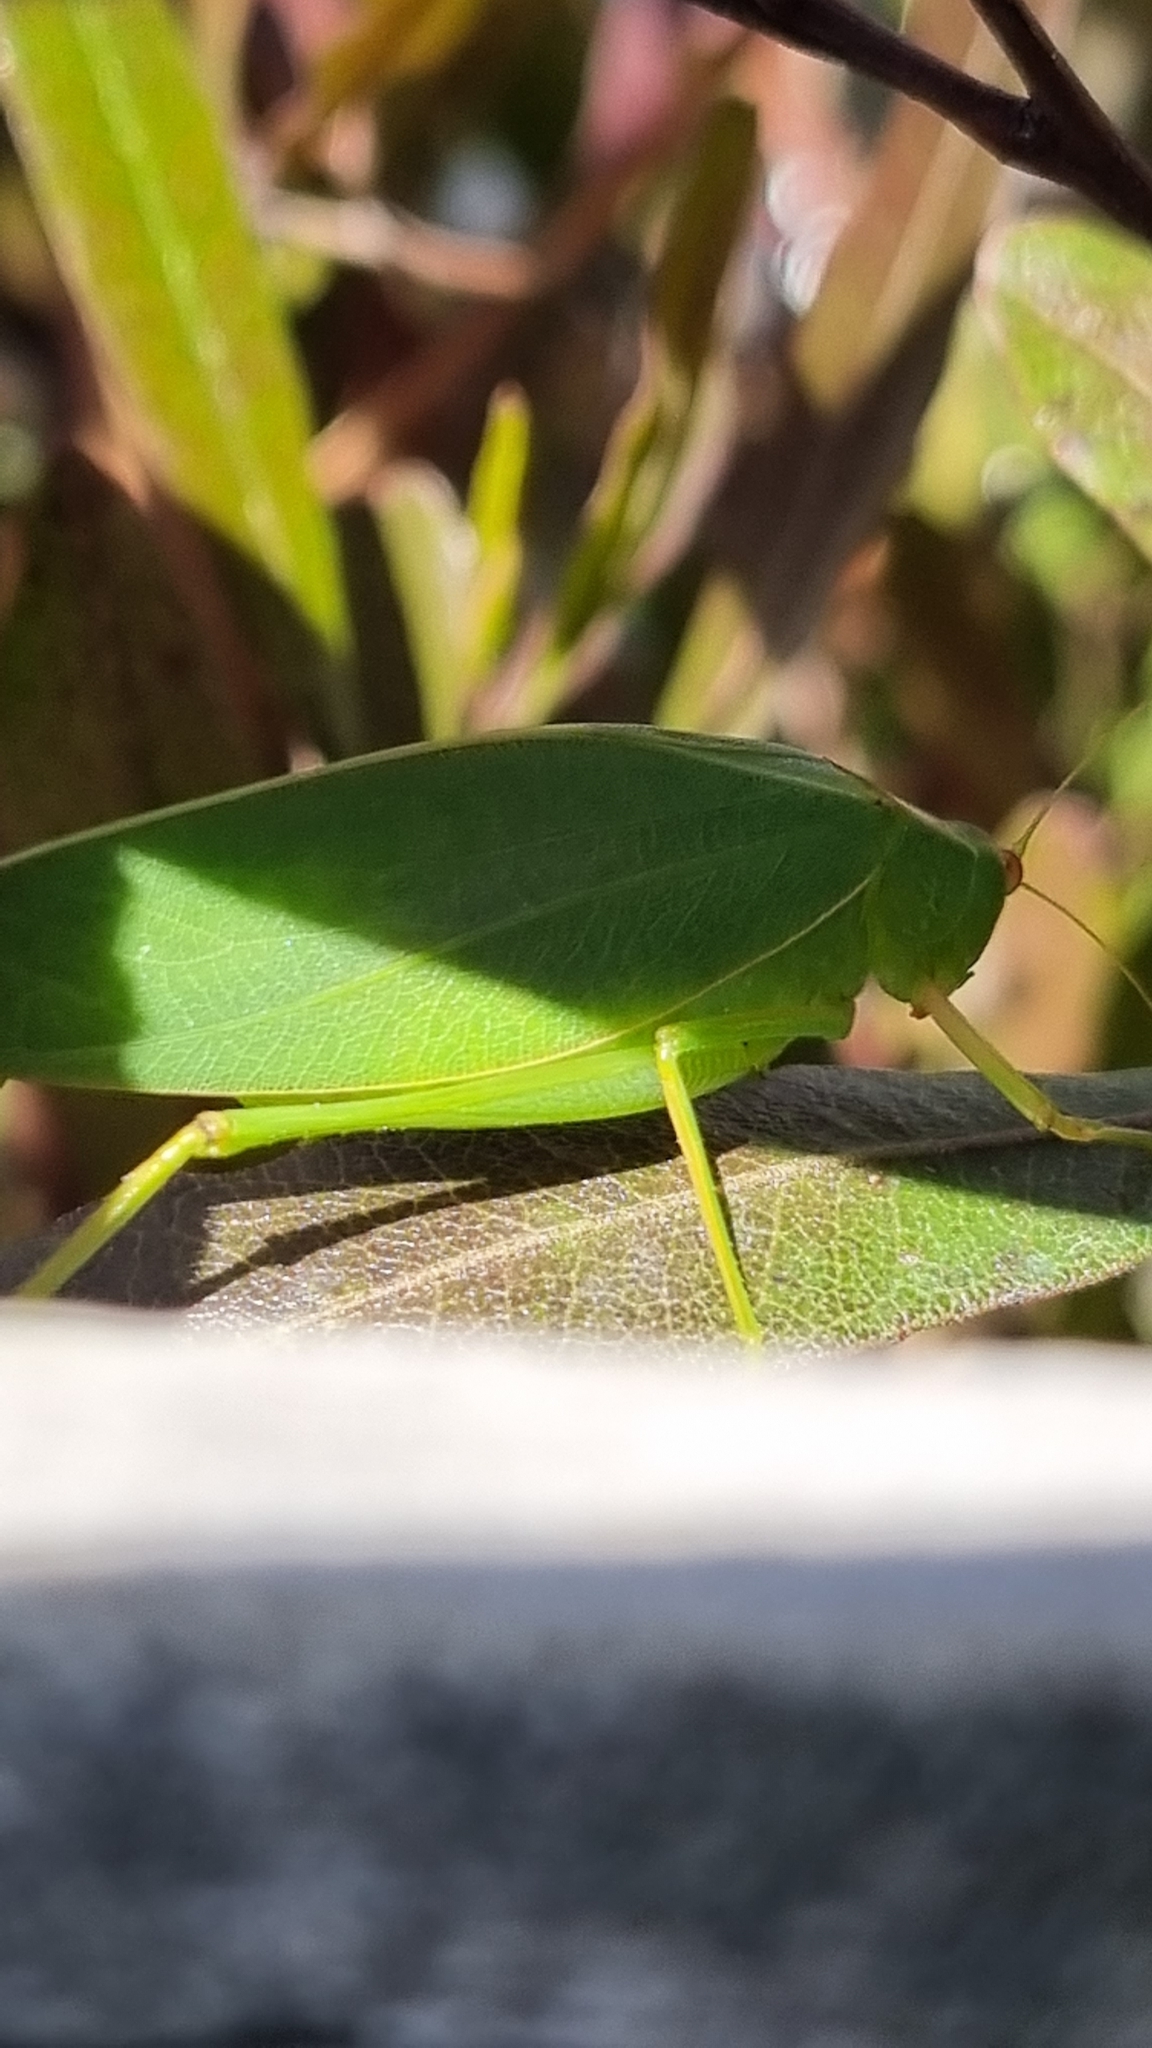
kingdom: Animalia
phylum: Arthropoda
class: Insecta
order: Orthoptera
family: Tettigoniidae
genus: Caedicia
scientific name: Caedicia simplex
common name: Common garden katydid
